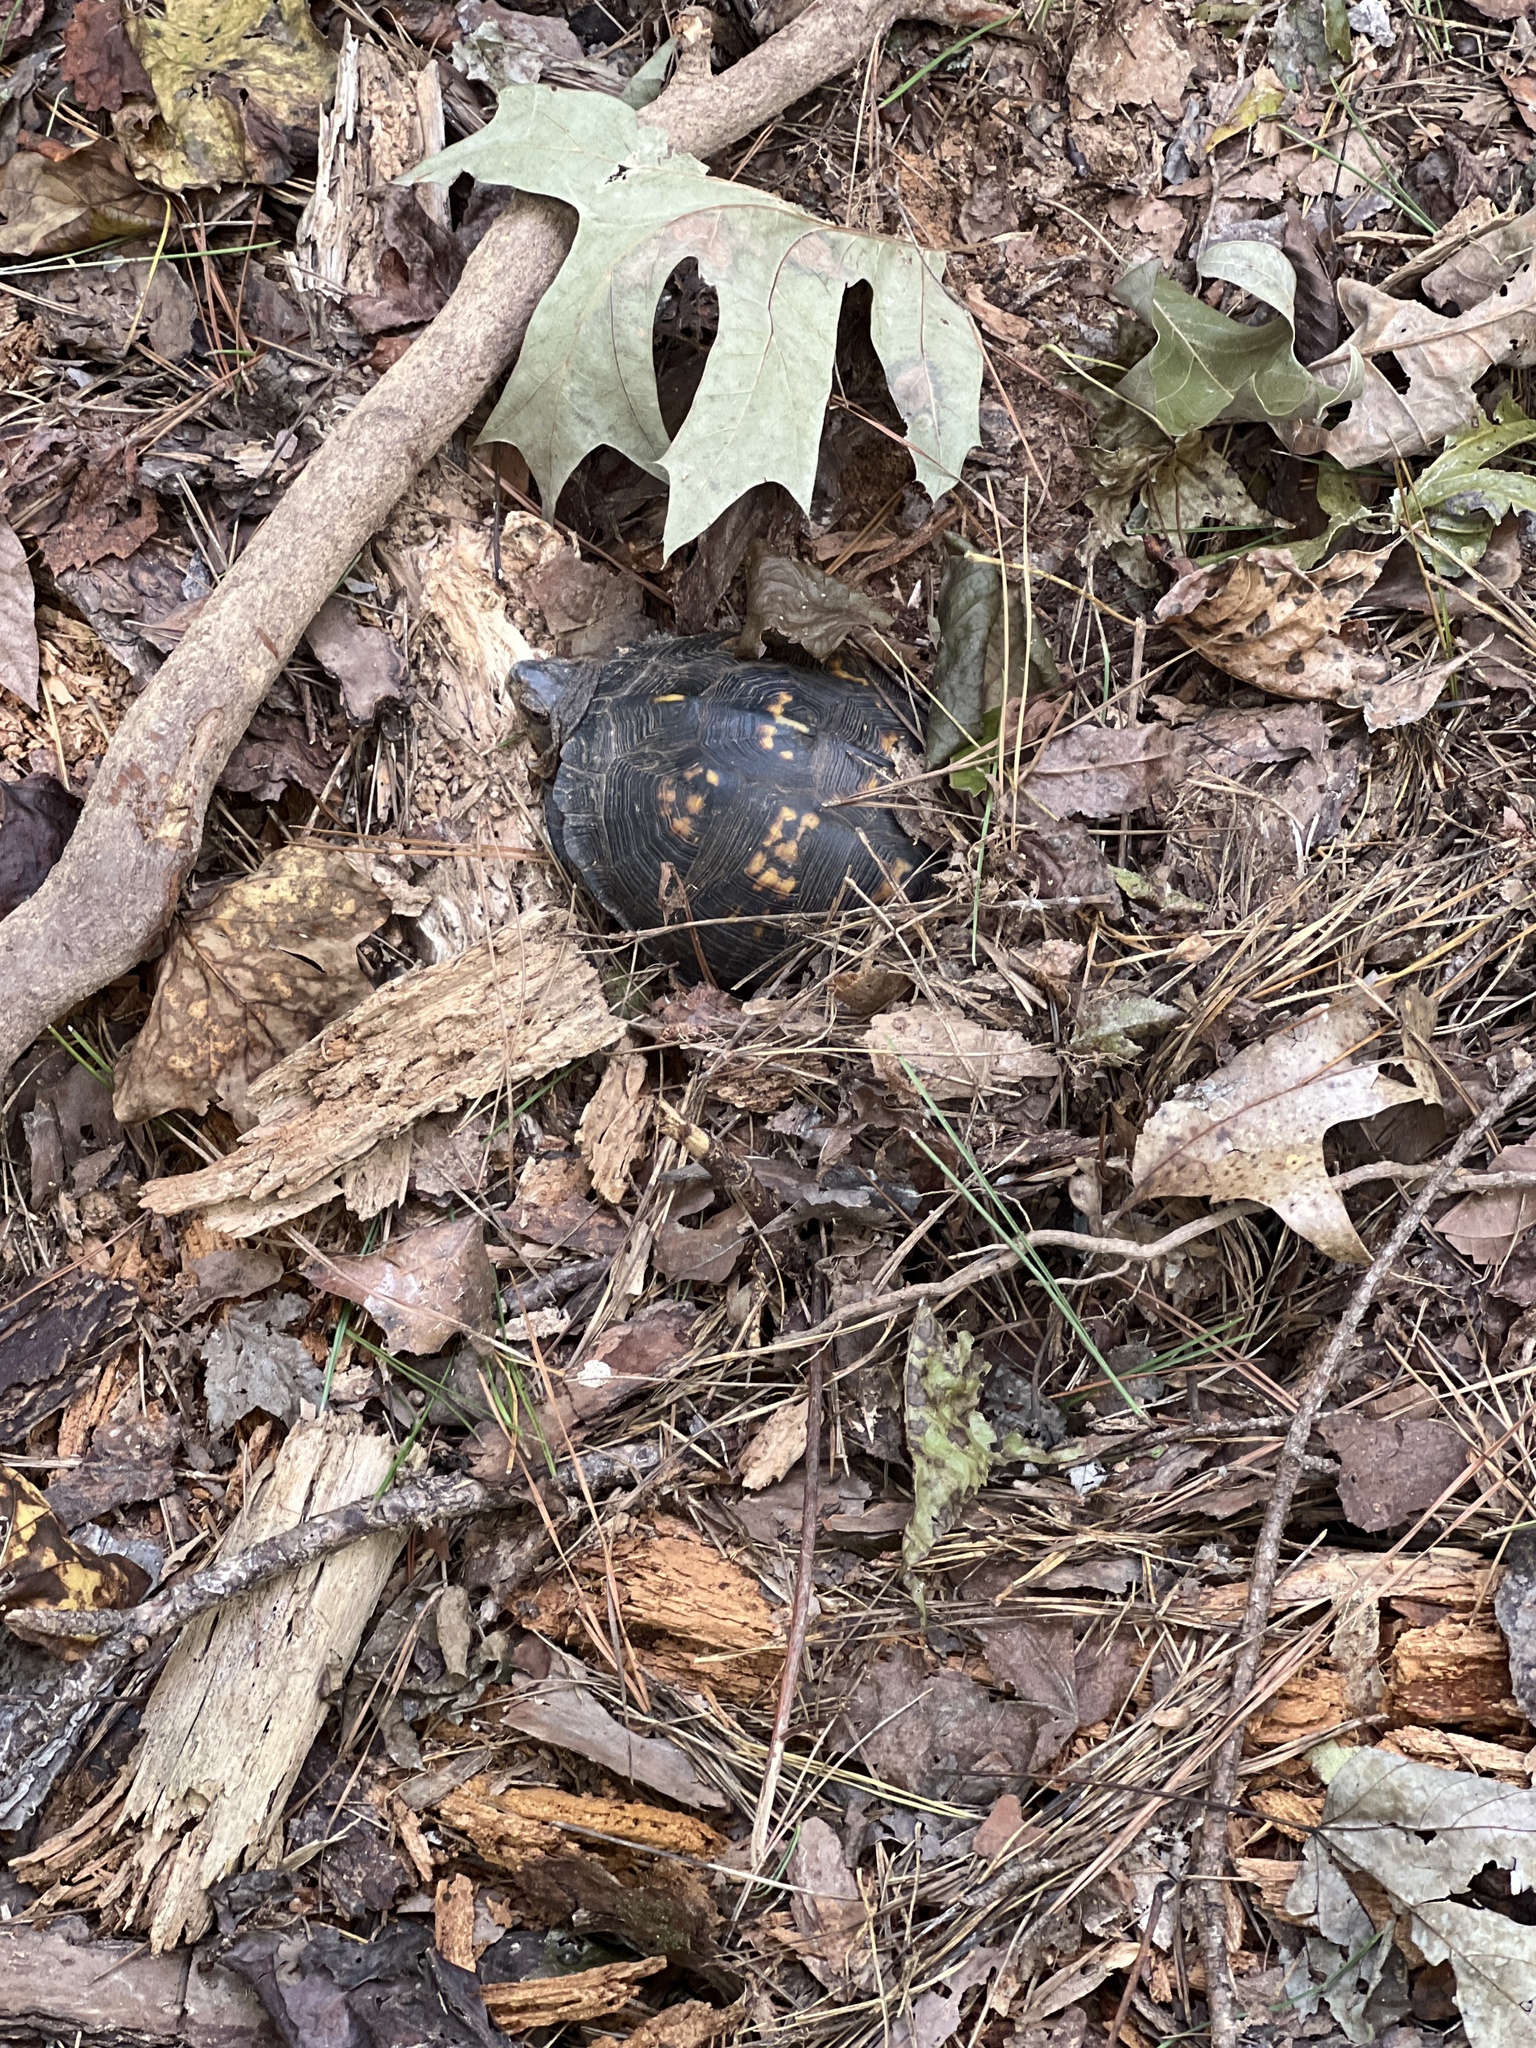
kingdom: Animalia
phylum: Chordata
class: Testudines
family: Emydidae
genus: Terrapene
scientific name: Terrapene carolina
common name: Common box turtle
